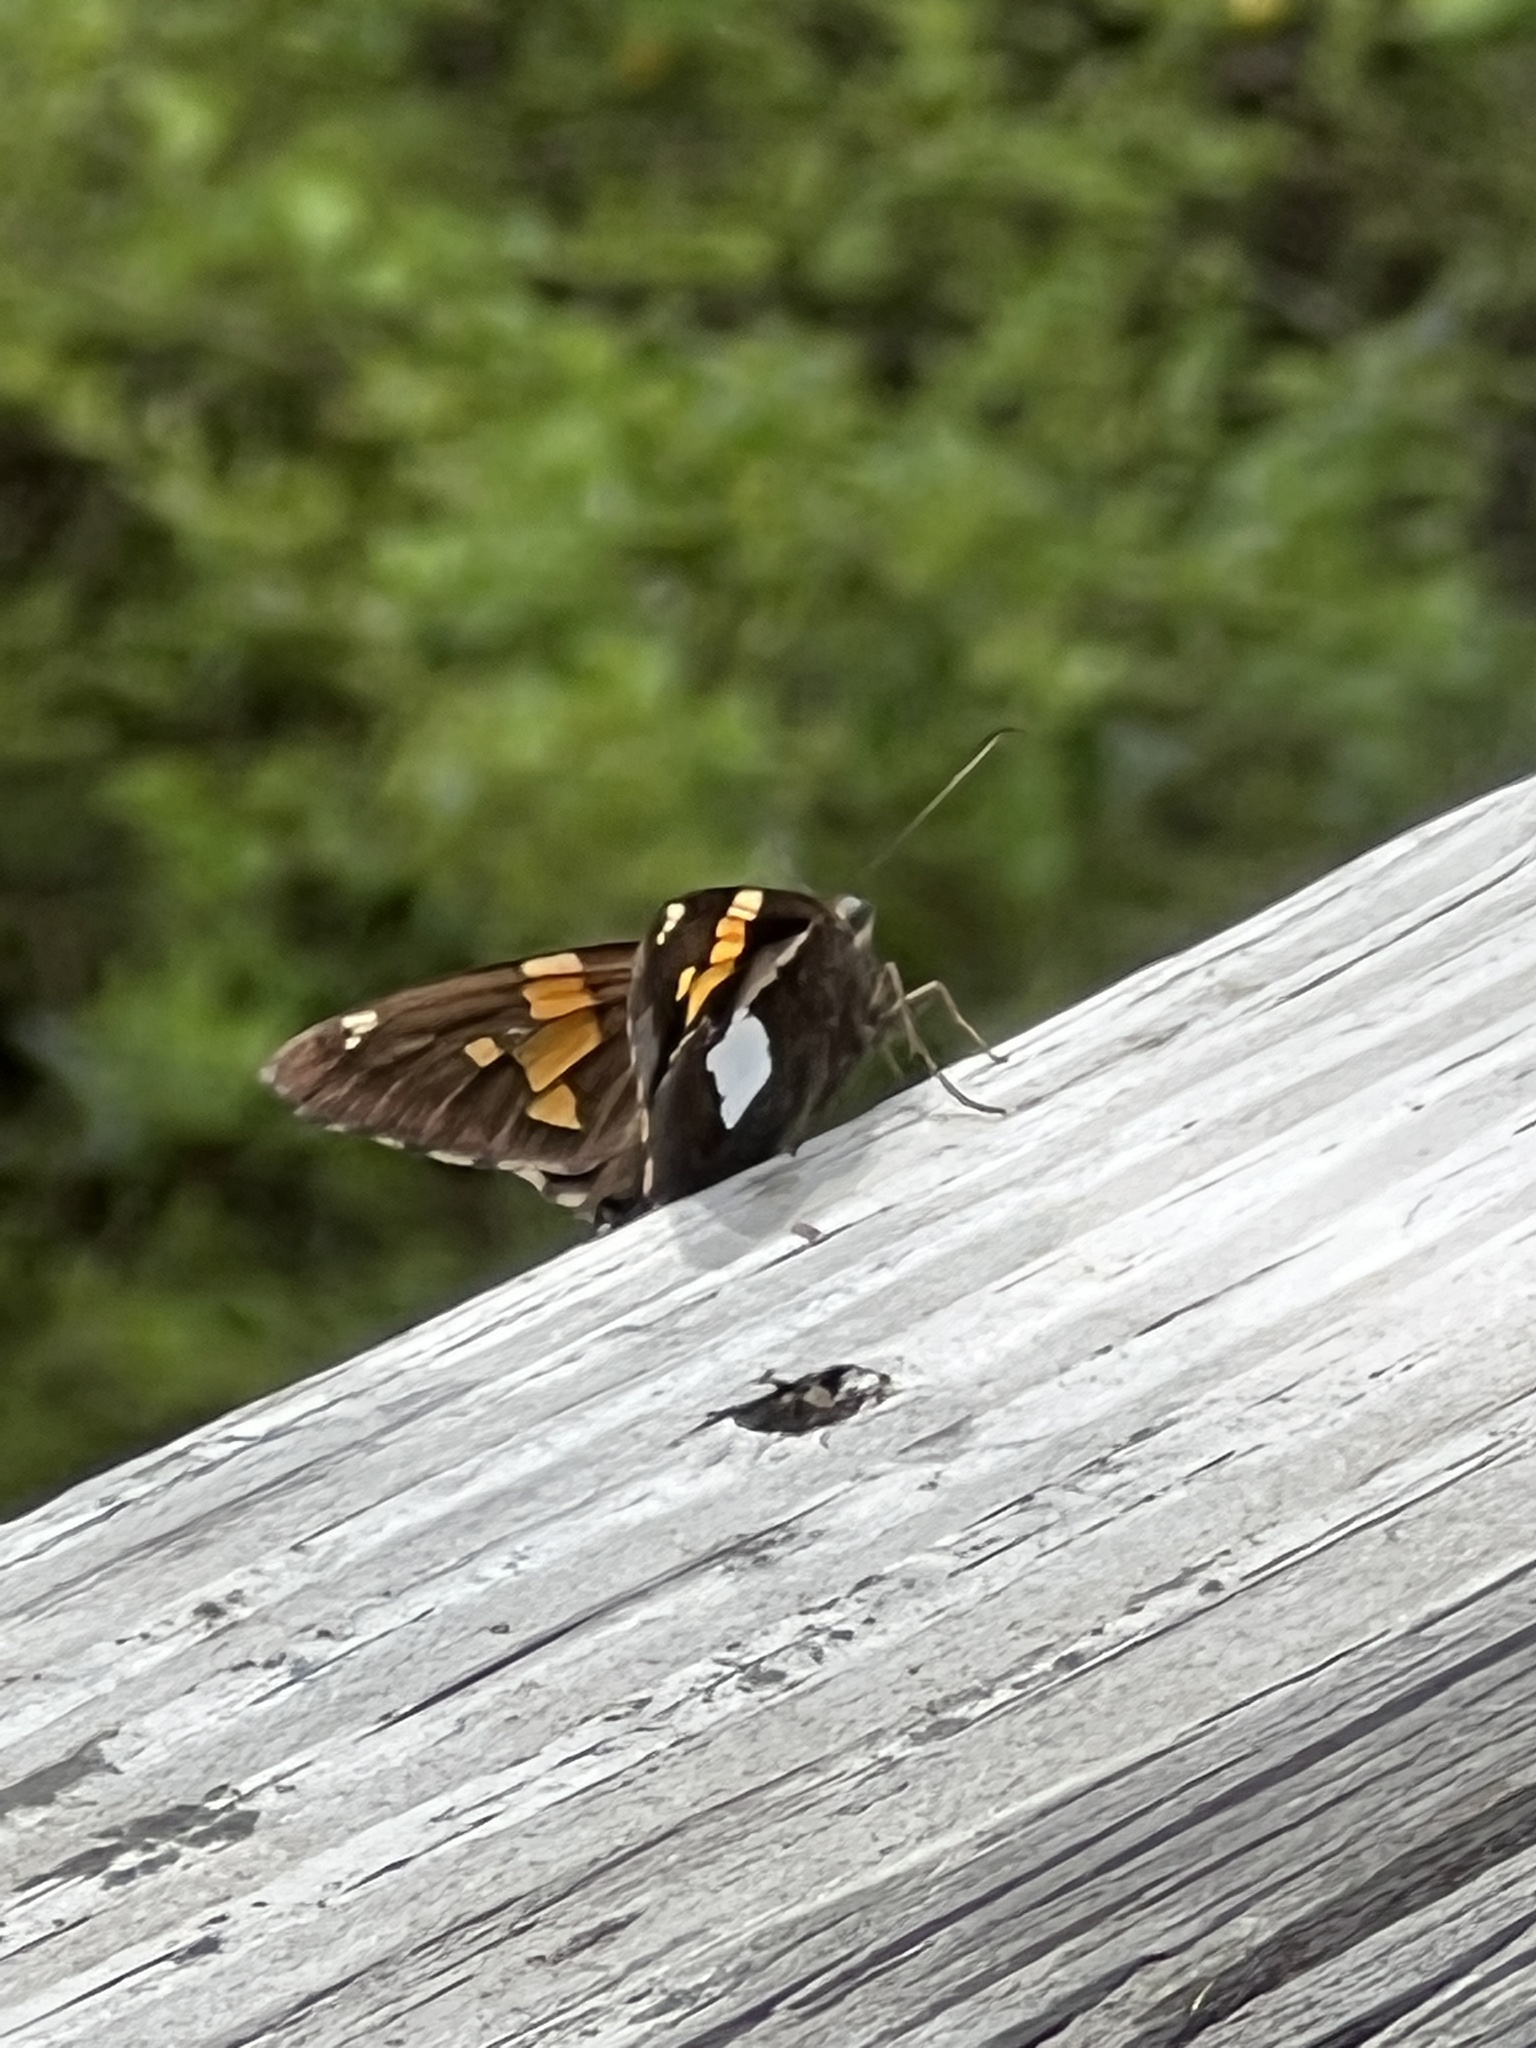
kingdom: Animalia
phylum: Arthropoda
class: Insecta
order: Lepidoptera
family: Hesperiidae
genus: Epargyreus
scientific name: Epargyreus clarus
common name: Silver-spotted skipper
